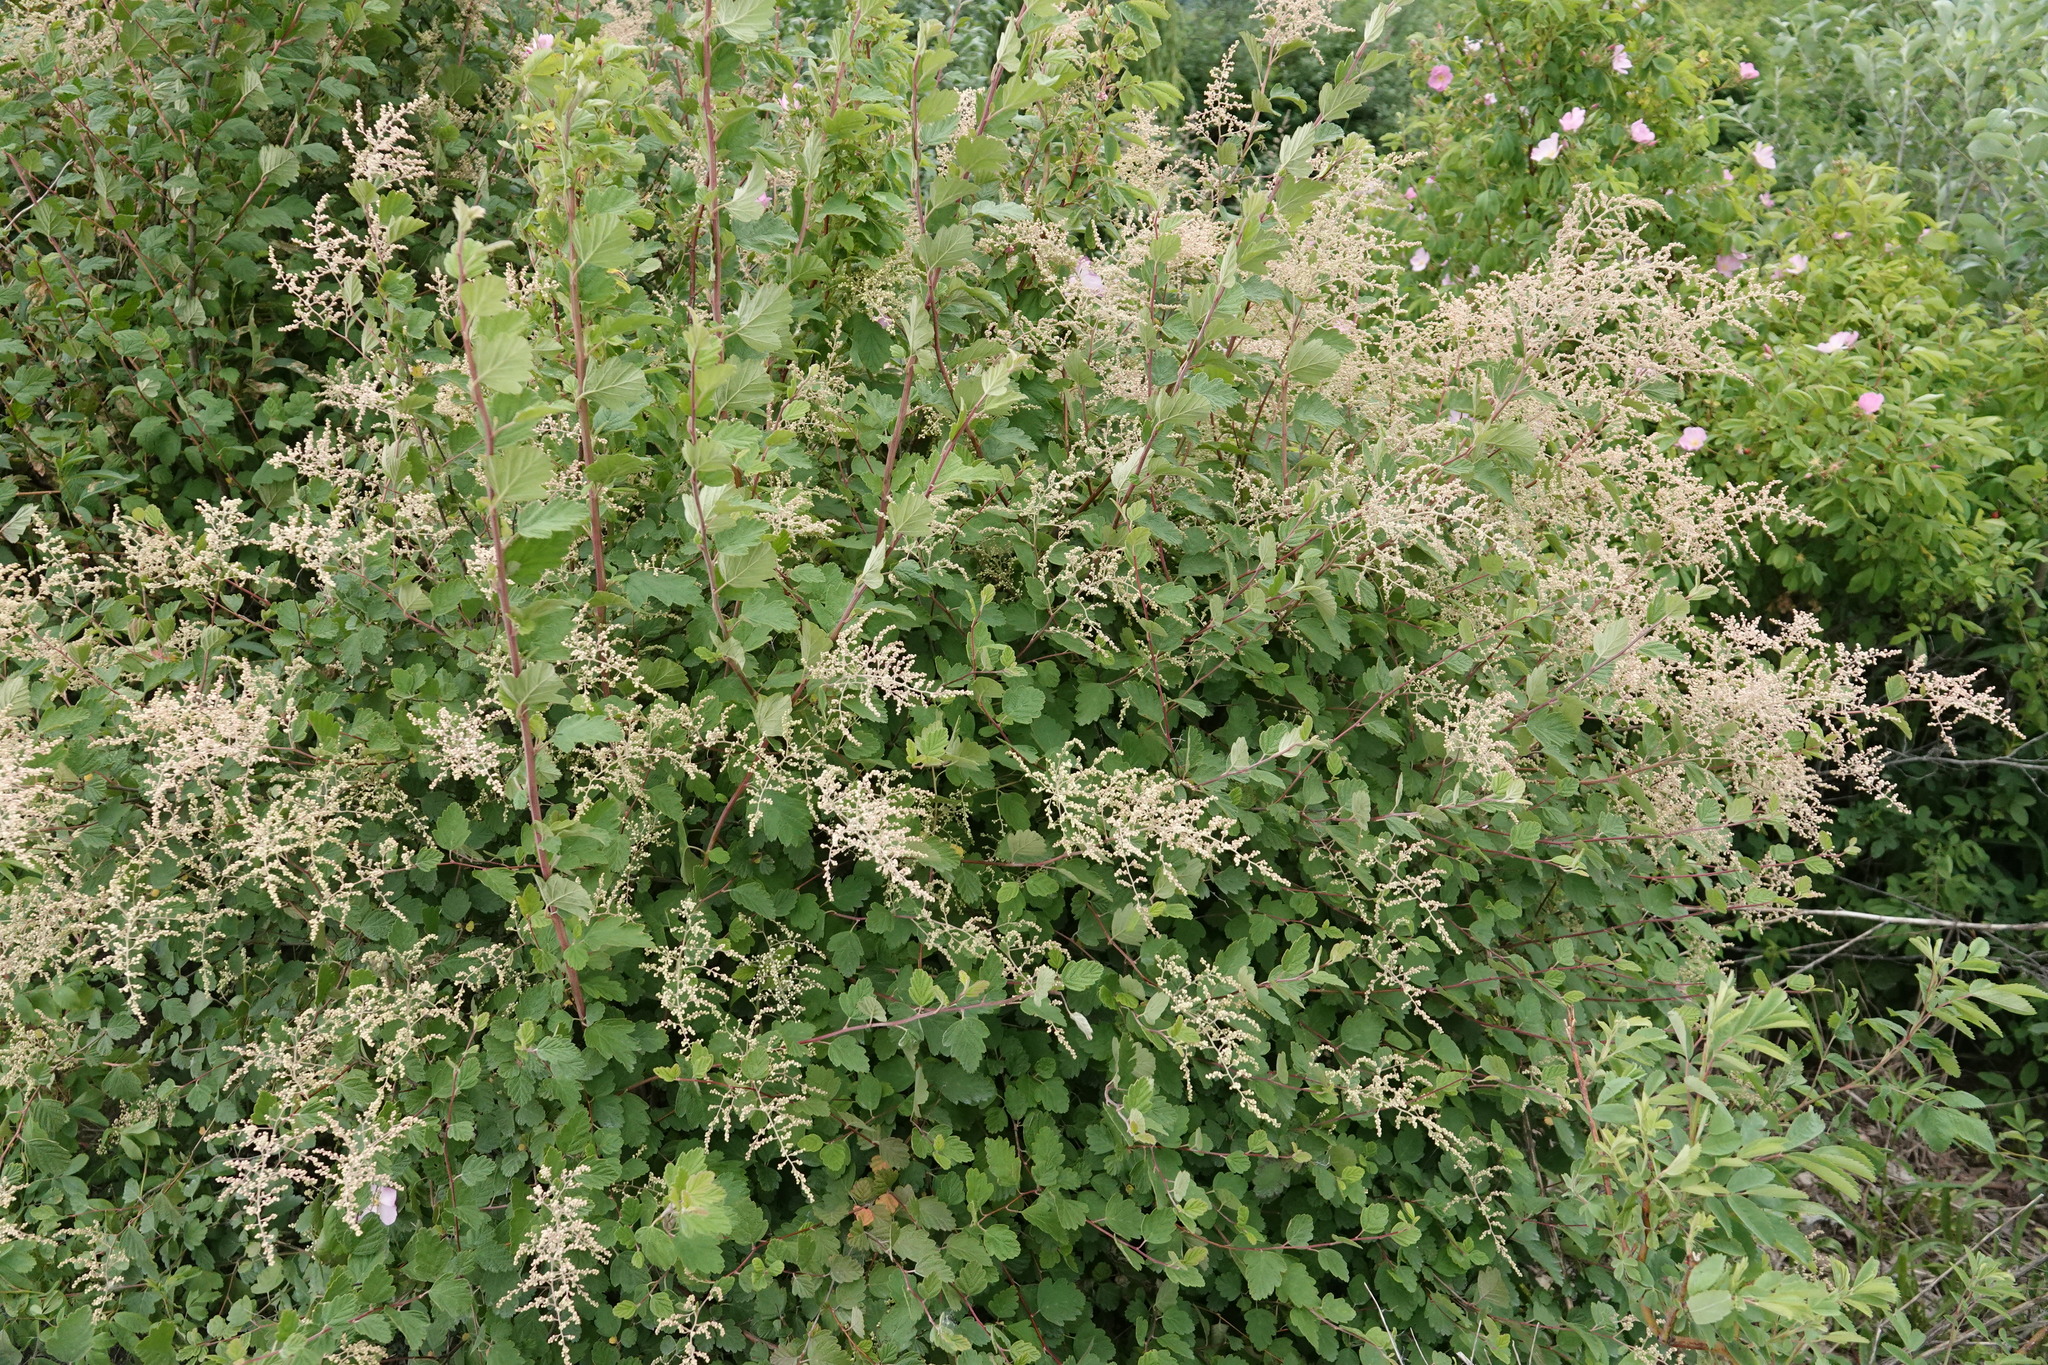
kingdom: Plantae
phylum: Tracheophyta
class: Magnoliopsida
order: Rosales
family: Rosaceae
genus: Holodiscus
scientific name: Holodiscus discolor
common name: Oceanspray
